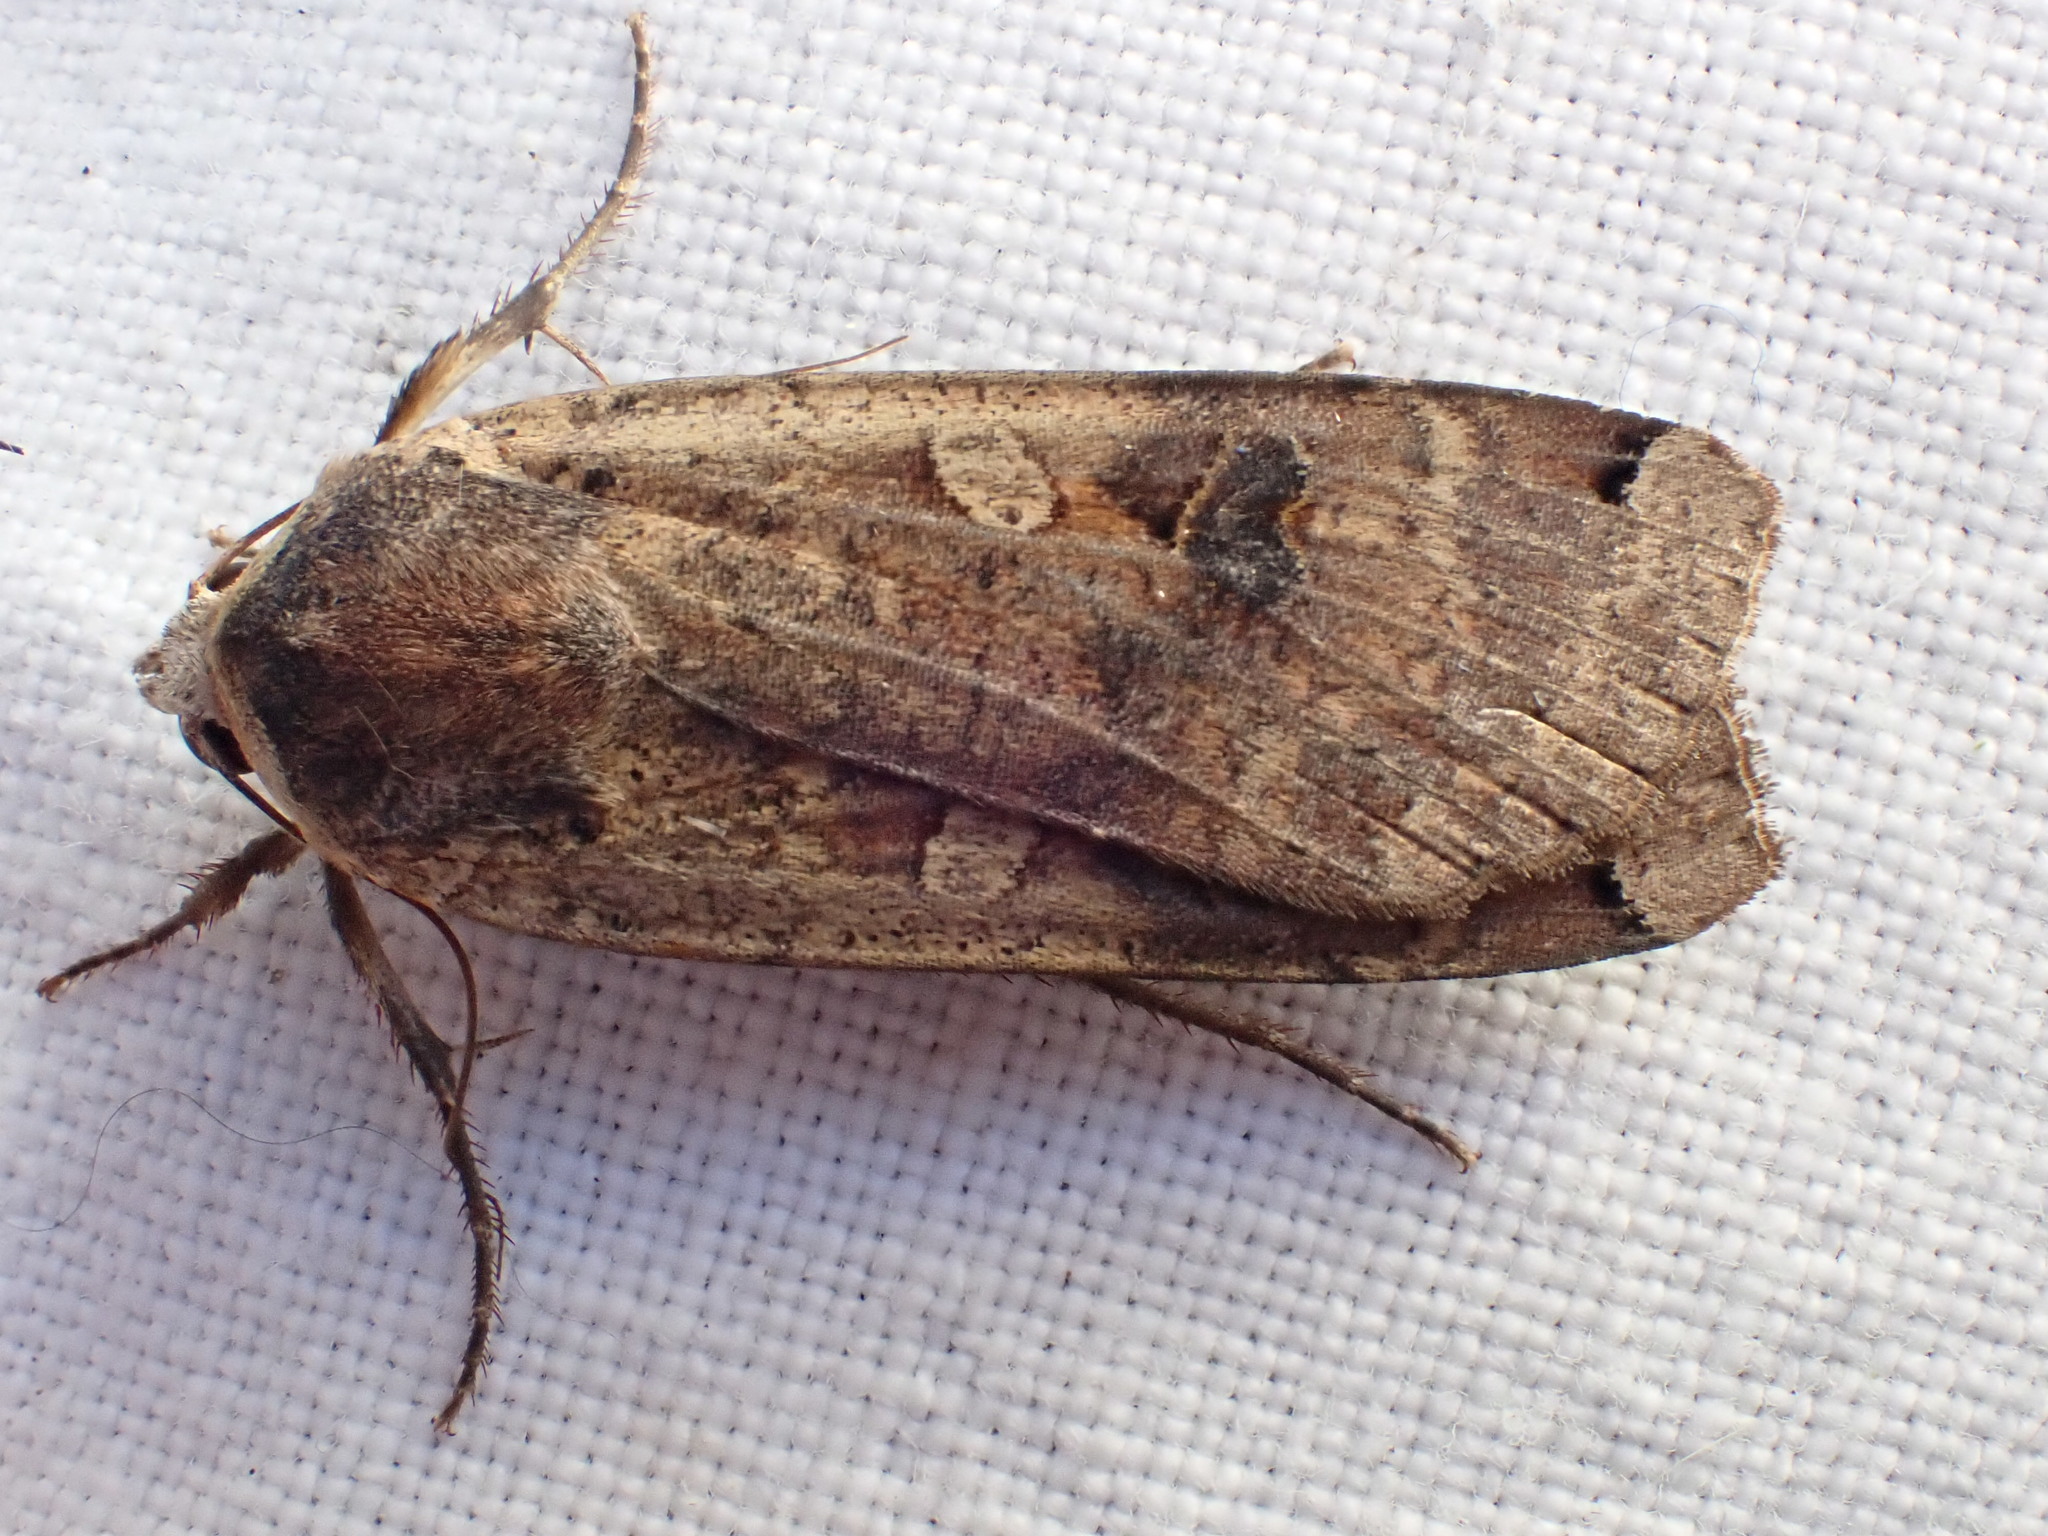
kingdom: Animalia
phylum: Arthropoda
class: Insecta
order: Lepidoptera
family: Noctuidae
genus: Noctua
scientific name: Noctua pronuba
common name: Large yellow underwing
